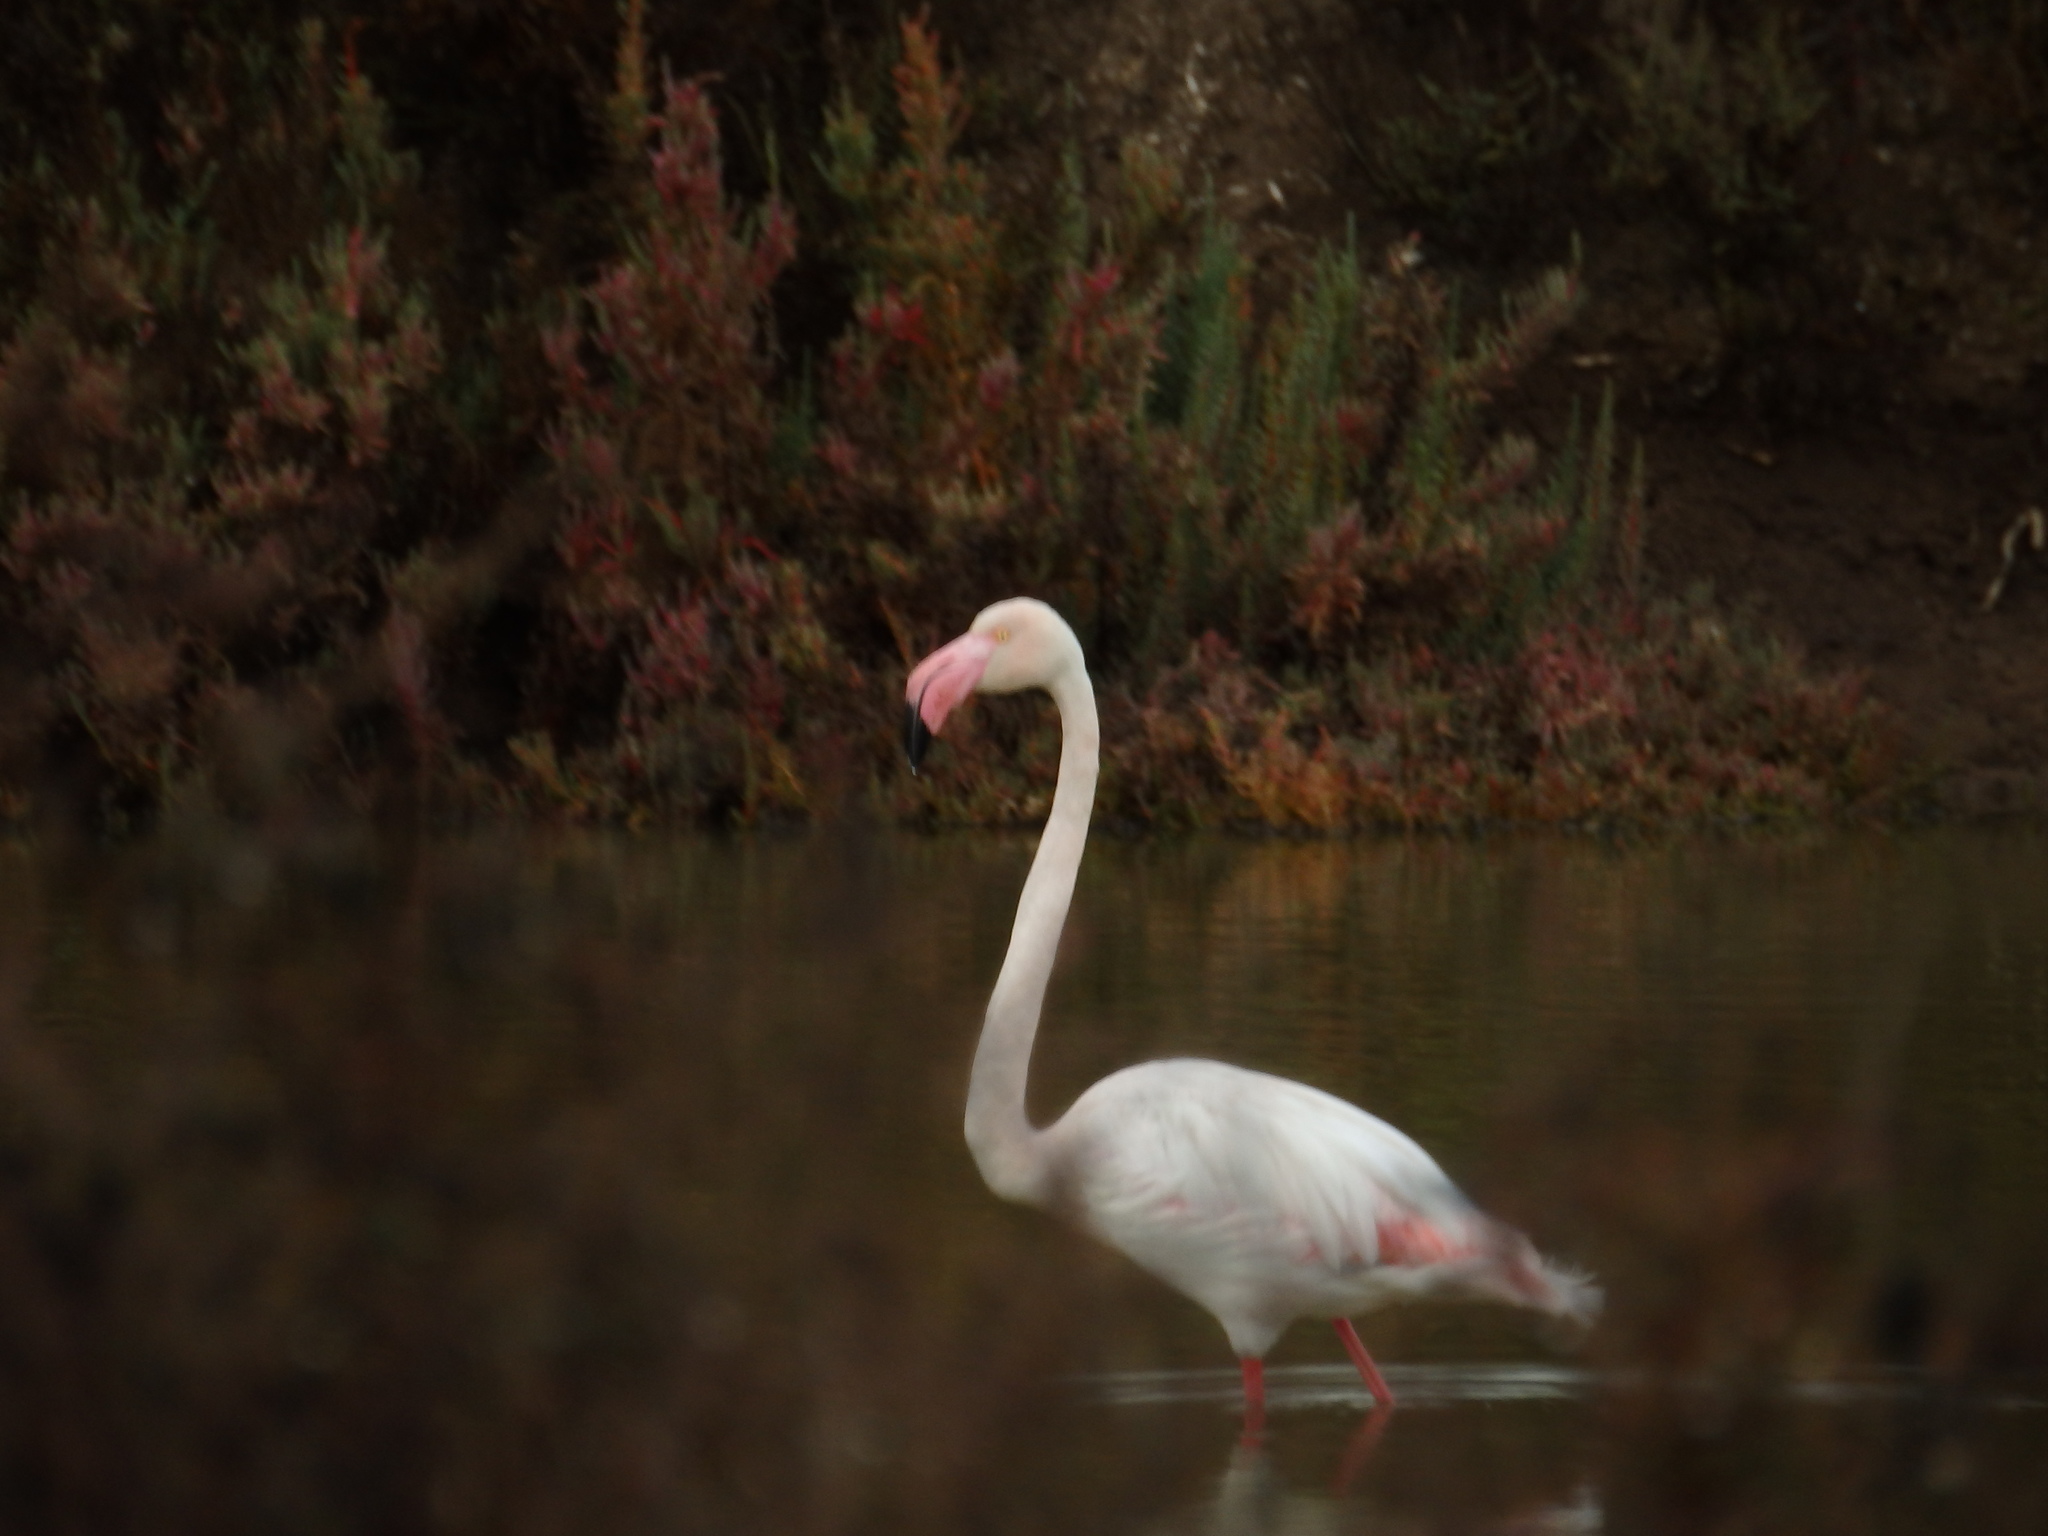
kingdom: Animalia
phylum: Chordata
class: Aves
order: Phoenicopteriformes
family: Phoenicopteridae
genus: Phoenicopterus
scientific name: Phoenicopterus roseus
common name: Greater flamingo
